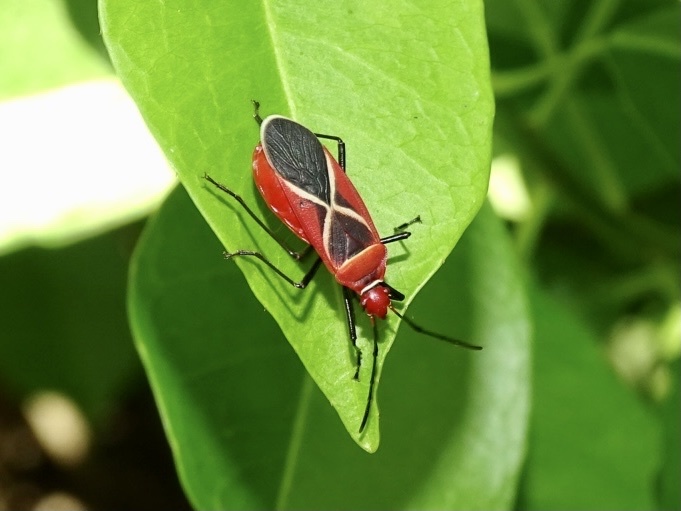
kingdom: Animalia
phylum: Arthropoda
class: Insecta
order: Hemiptera
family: Pyrrhocoridae
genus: Dysdercus
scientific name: Dysdercus decussatus
